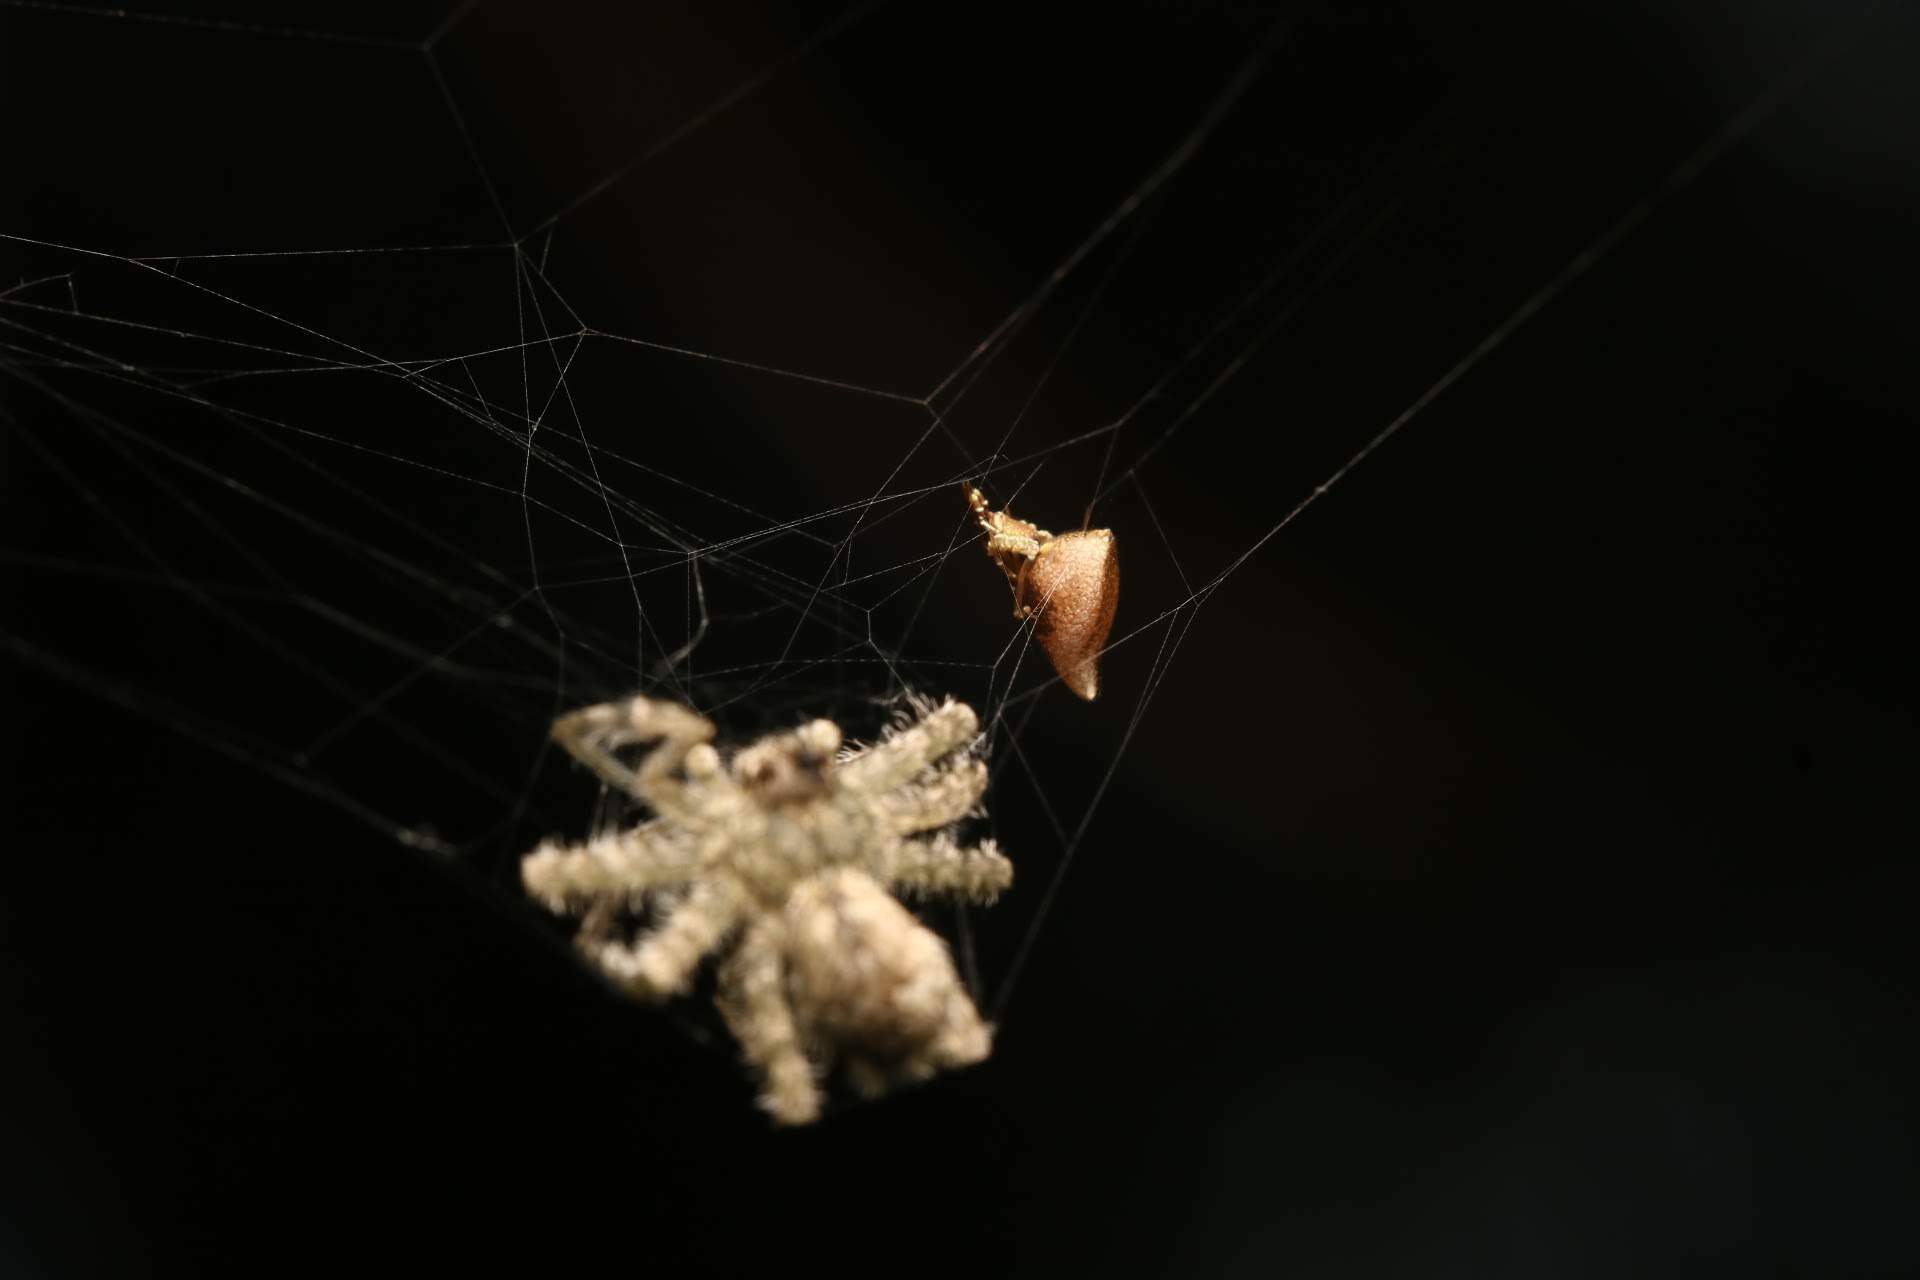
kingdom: Animalia
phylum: Arthropoda
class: Arachnida
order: Araneae
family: Theridiidae
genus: Neospintharus
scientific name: Neospintharus trigonum
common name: Horned parasitic cobweaver
